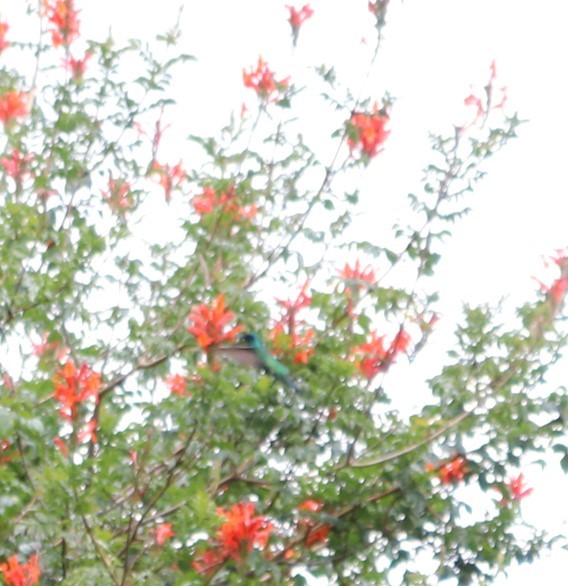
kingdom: Animalia
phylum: Chordata
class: Aves
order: Apodiformes
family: Trochilidae
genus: Colibri
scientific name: Colibri coruscans
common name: Sparkling violetear
